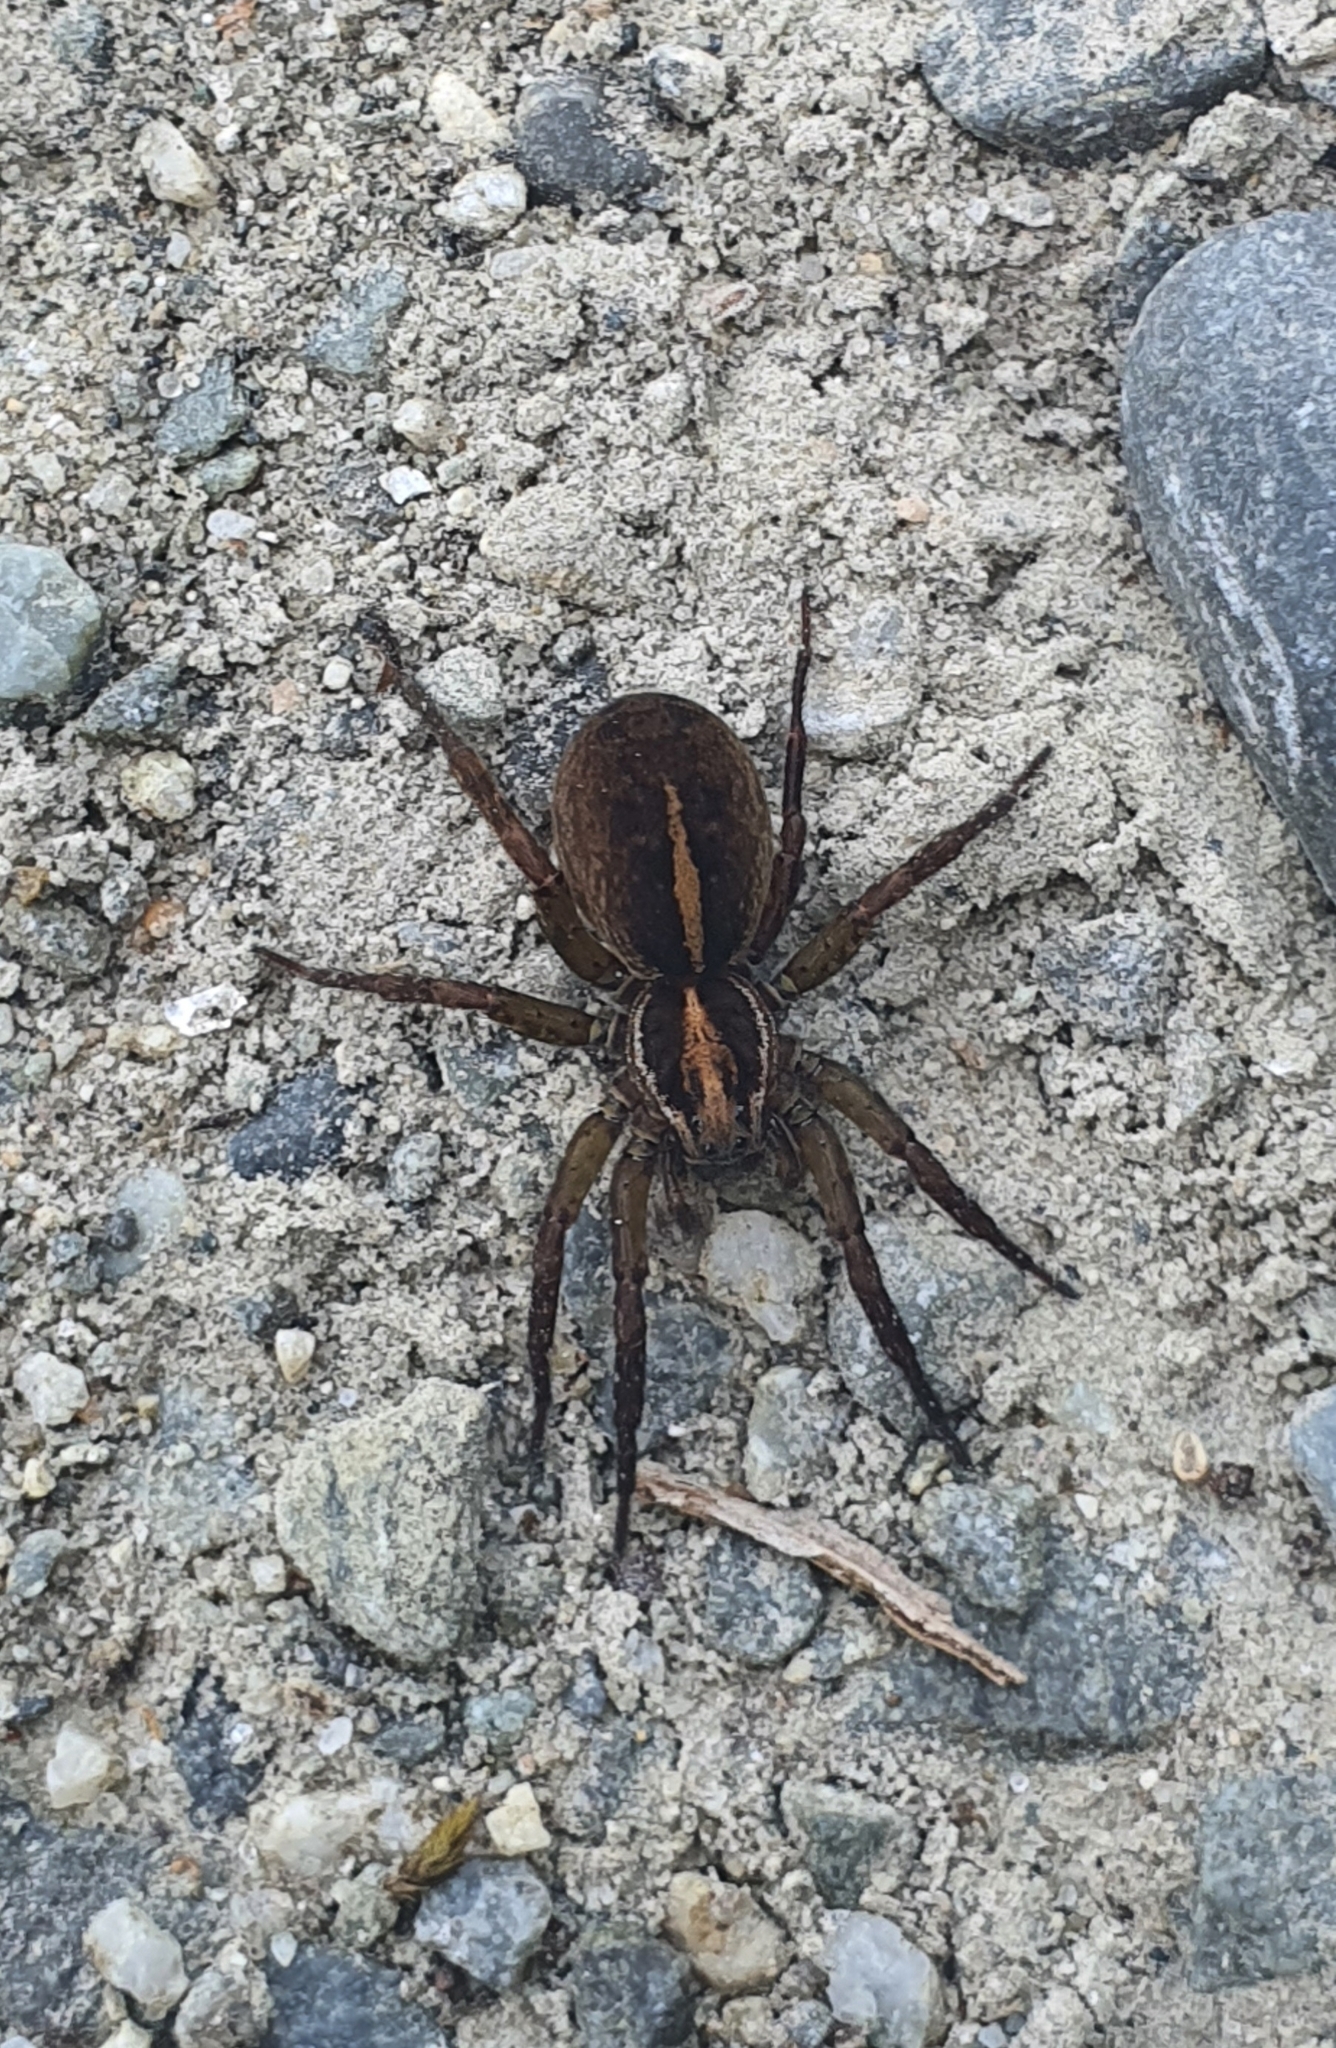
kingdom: Animalia
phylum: Arthropoda
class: Arachnida
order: Araneae
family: Lycosidae
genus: Anoteropsis
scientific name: Anoteropsis hilaris
